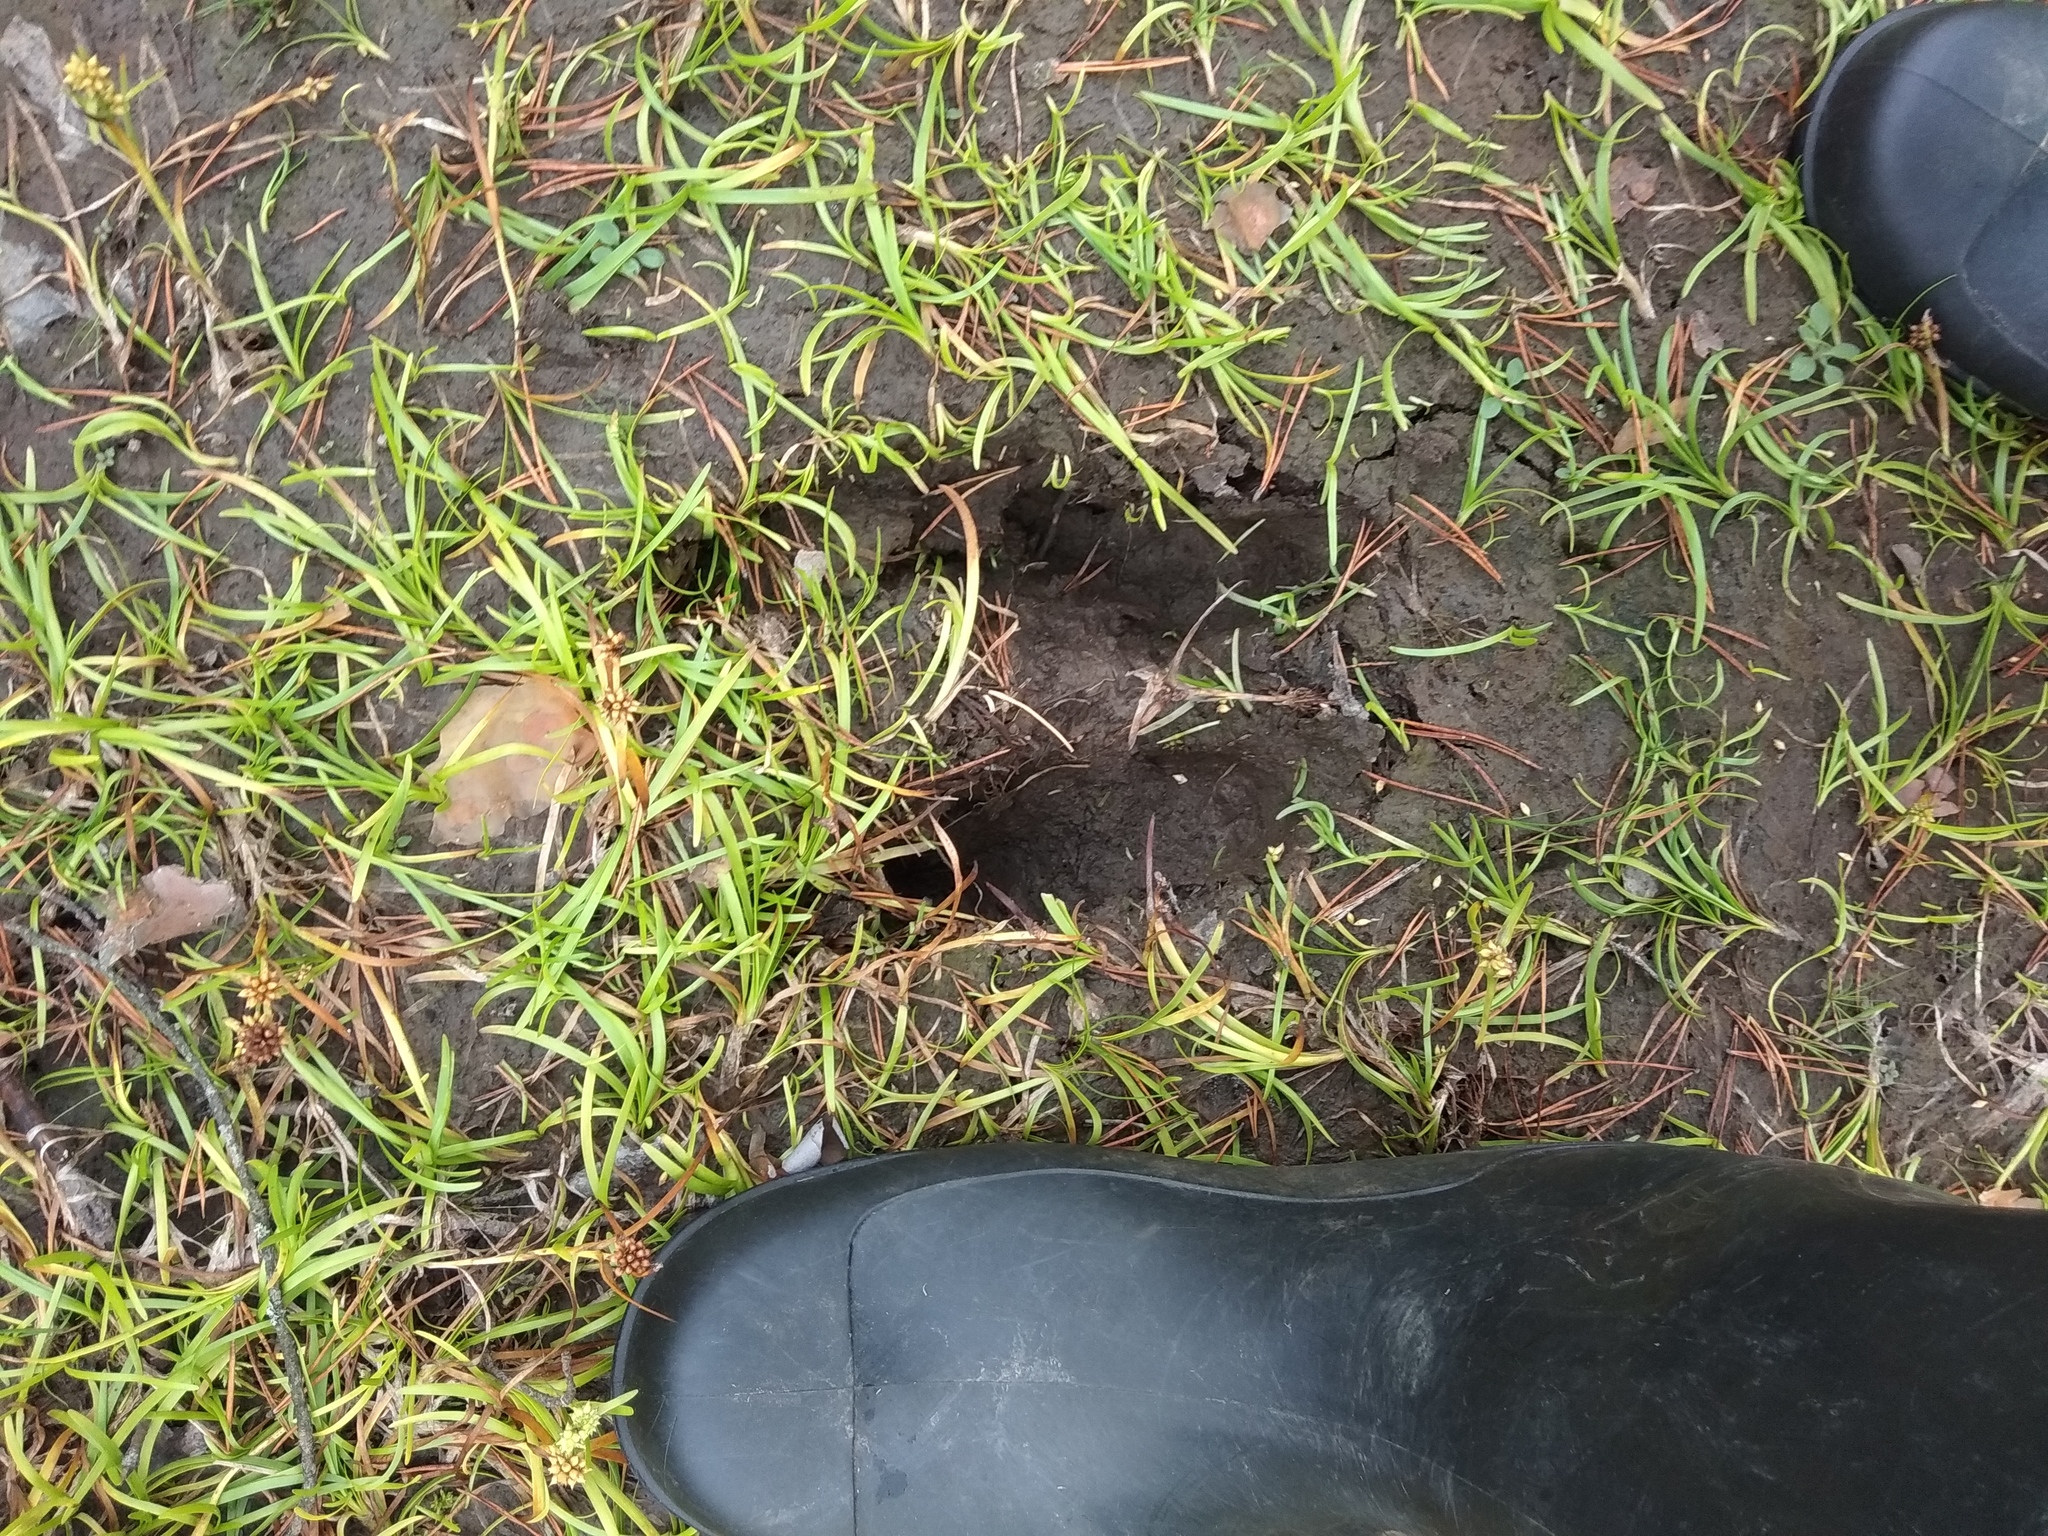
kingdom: Animalia
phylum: Chordata
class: Mammalia
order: Artiodactyla
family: Cervidae
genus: Alces
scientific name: Alces alces
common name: Moose
